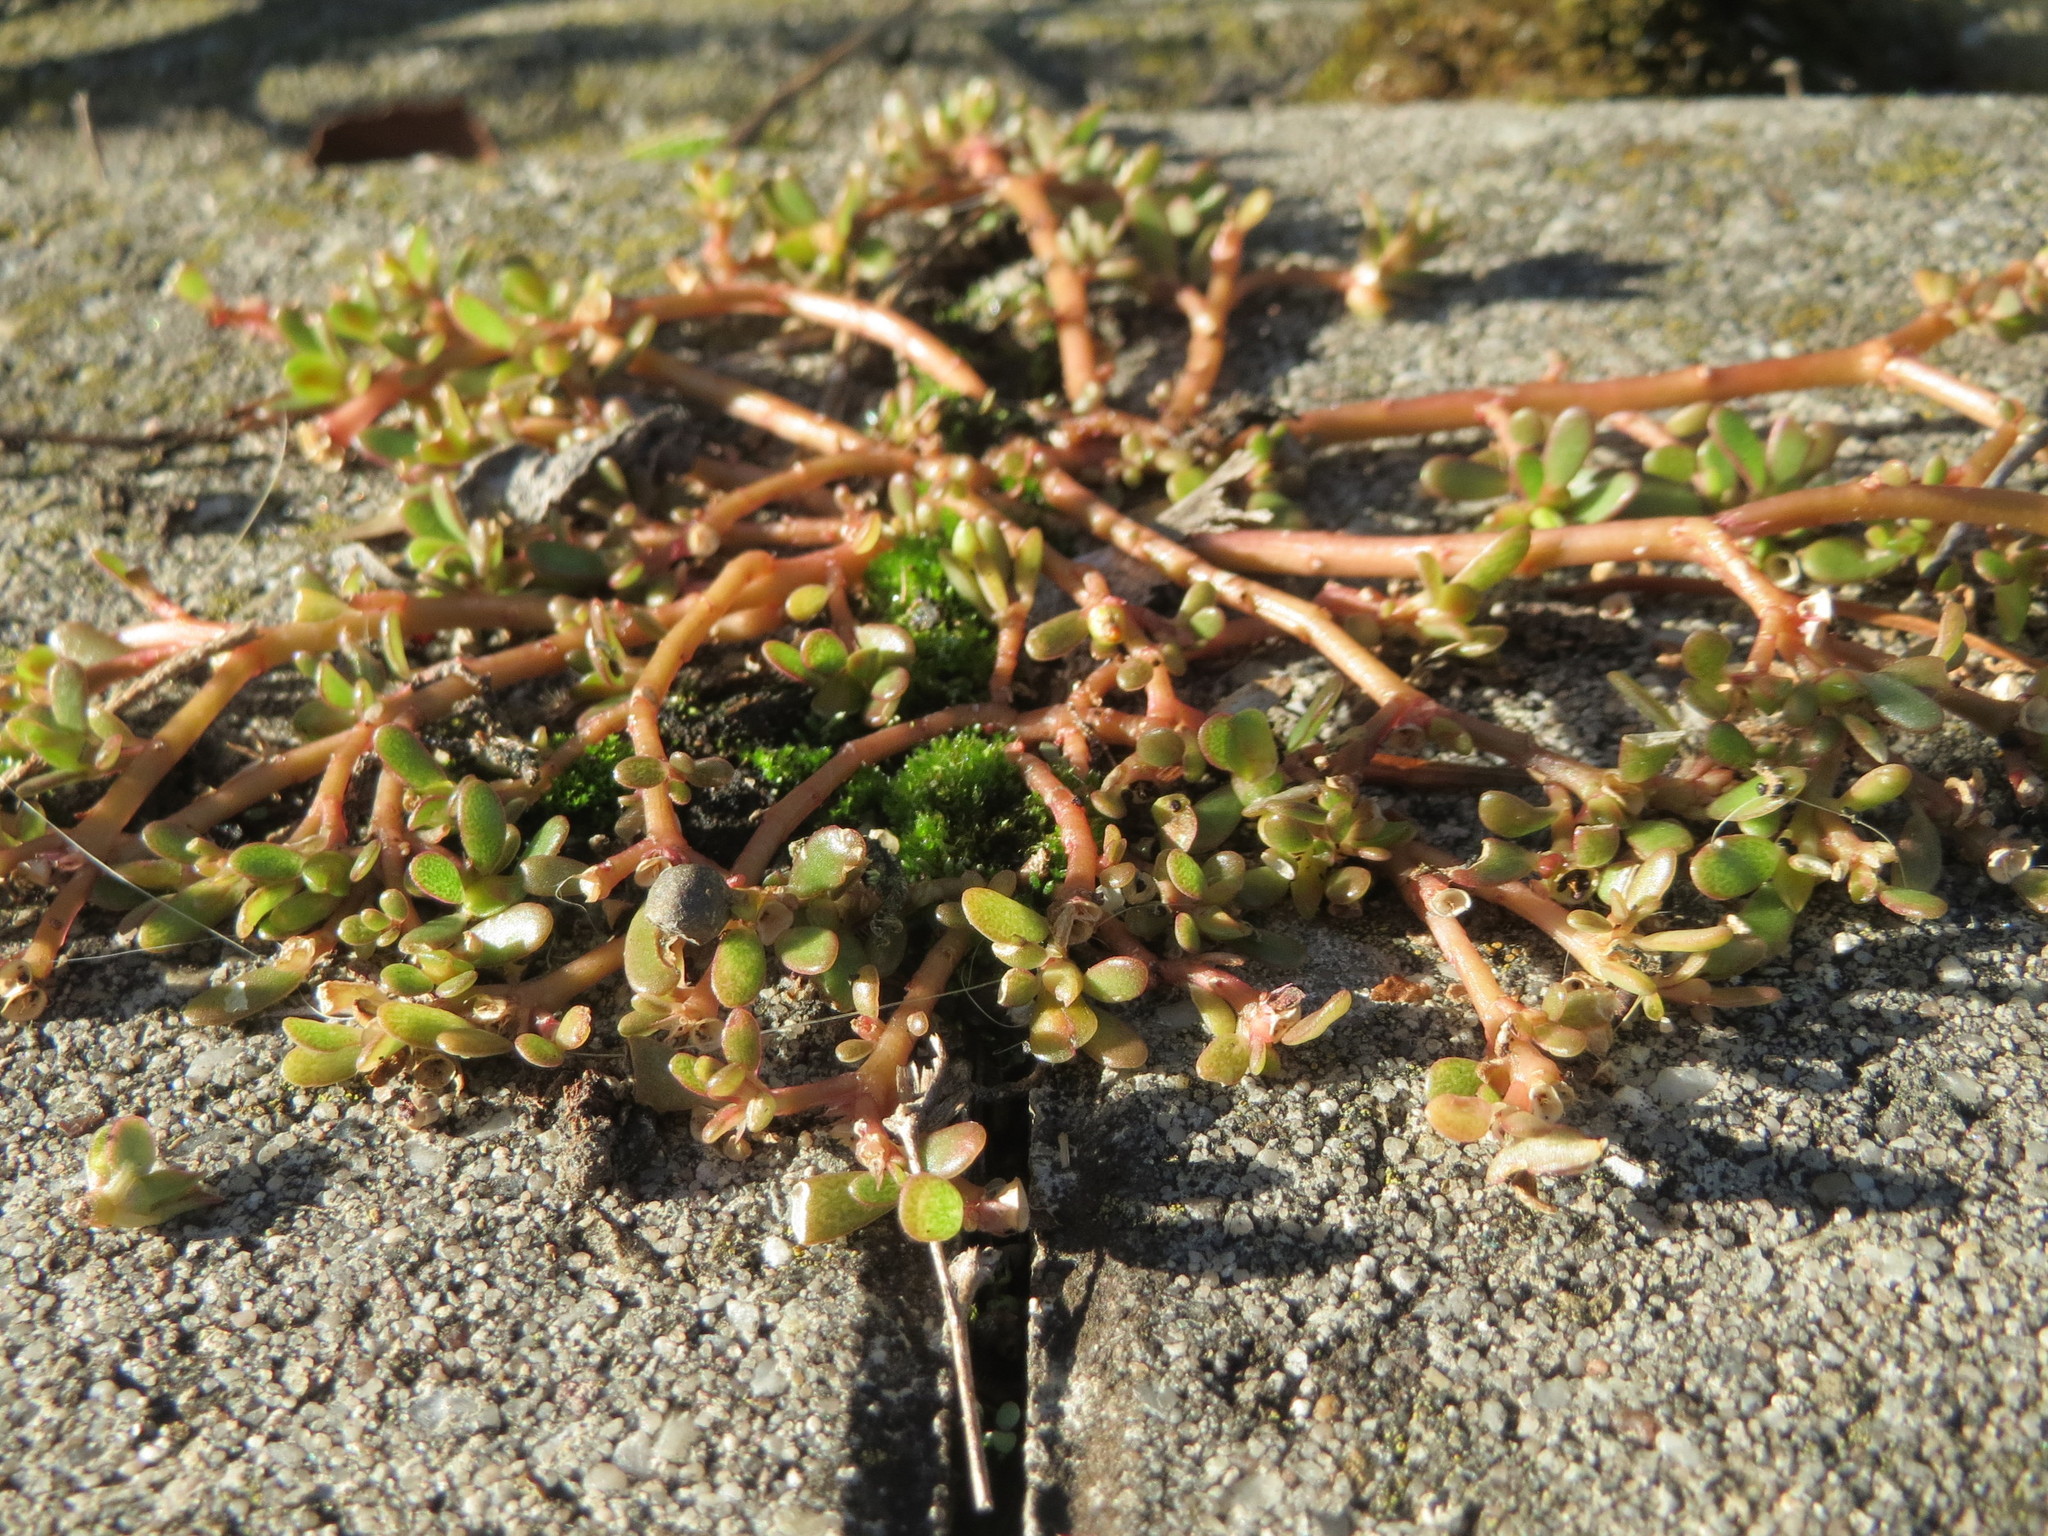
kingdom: Plantae
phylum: Tracheophyta
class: Magnoliopsida
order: Caryophyllales
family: Portulacaceae
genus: Portulaca
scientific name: Portulaca oleracea
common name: Common purslane
